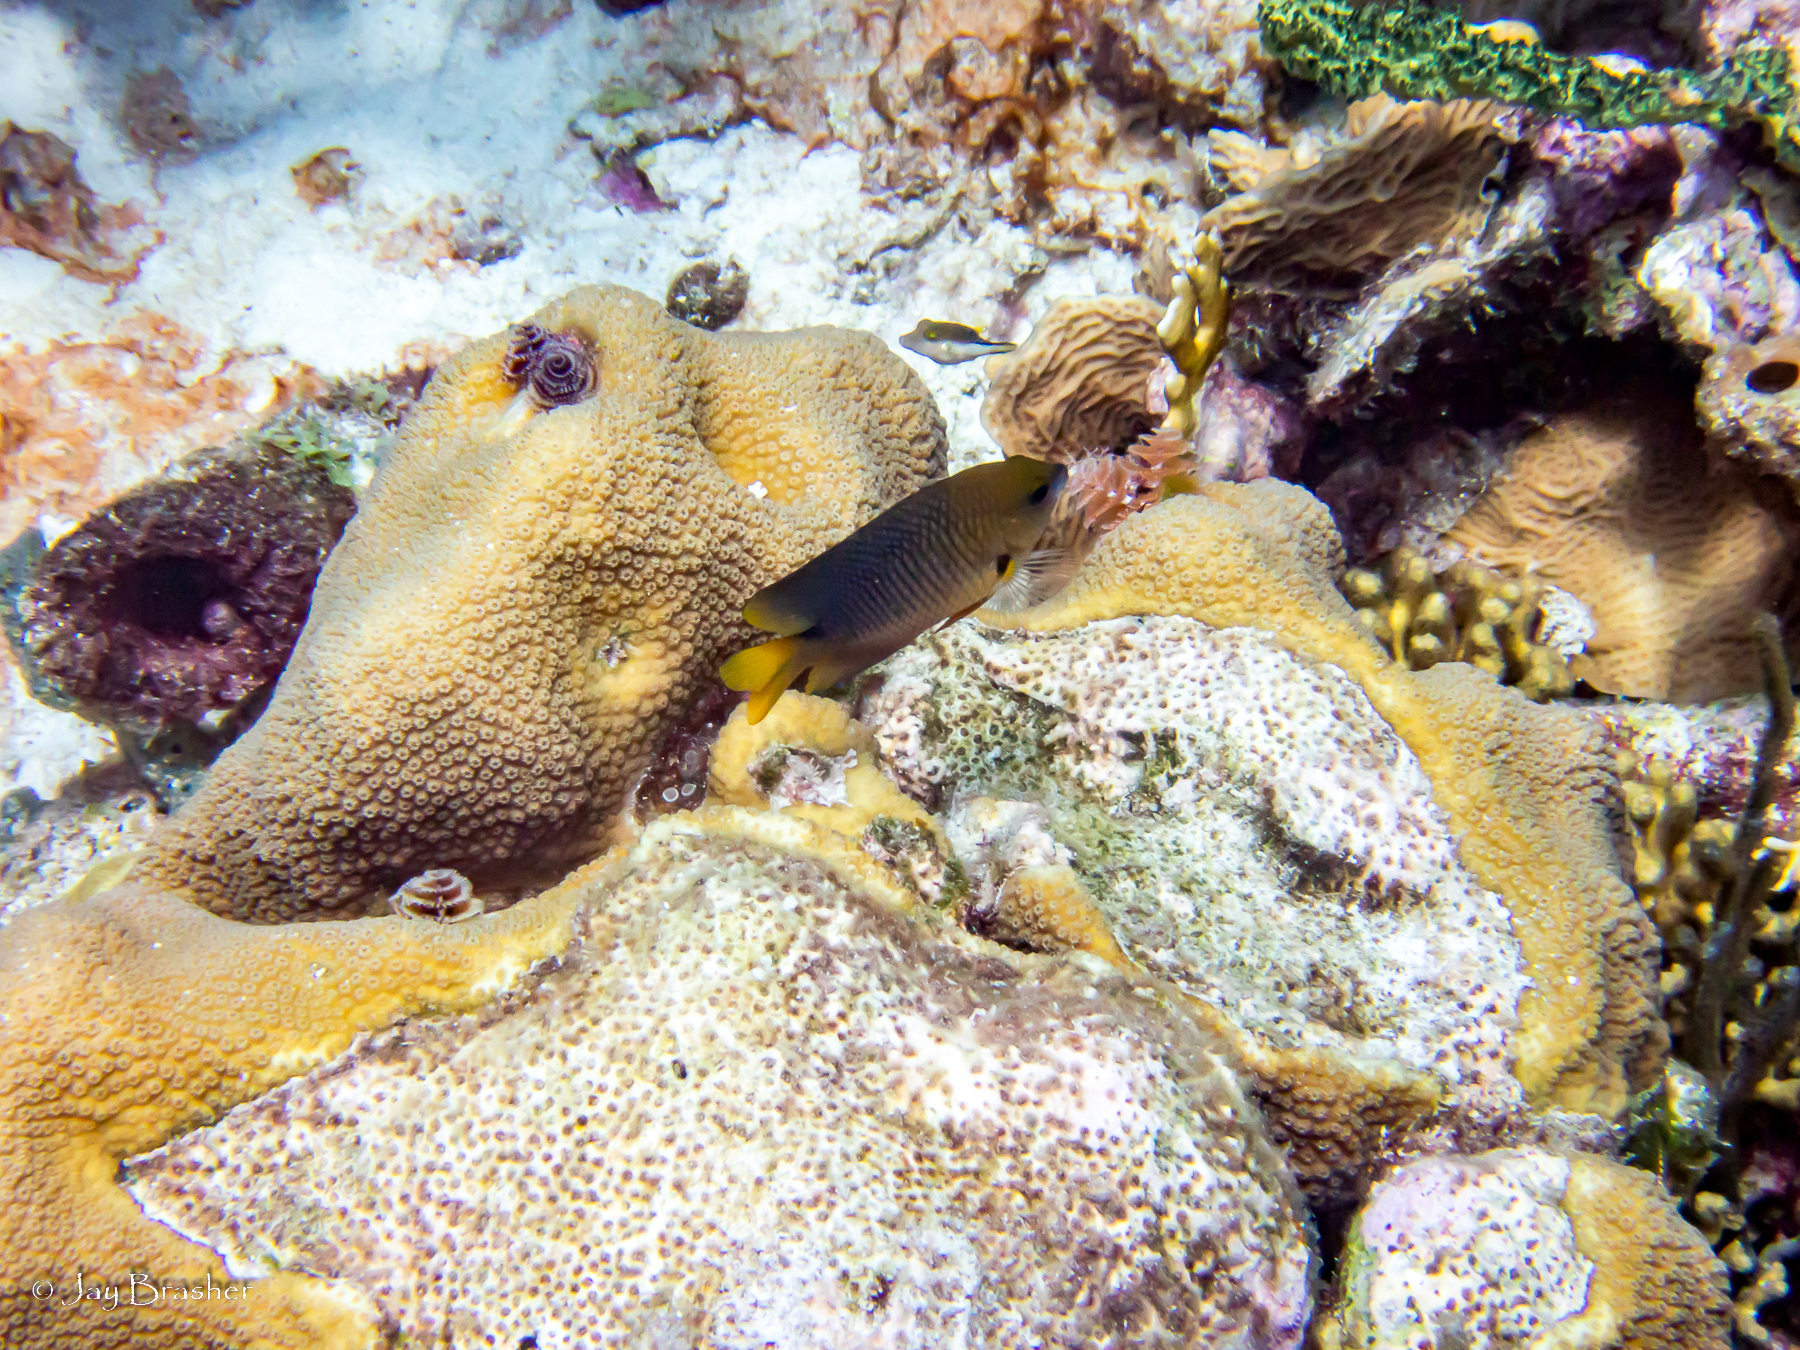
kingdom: Animalia
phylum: Chordata
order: Tetraodontiformes
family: Tetraodontidae
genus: Canthigaster
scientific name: Canthigaster rostrata
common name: Caribbean sharpnose-puffer
